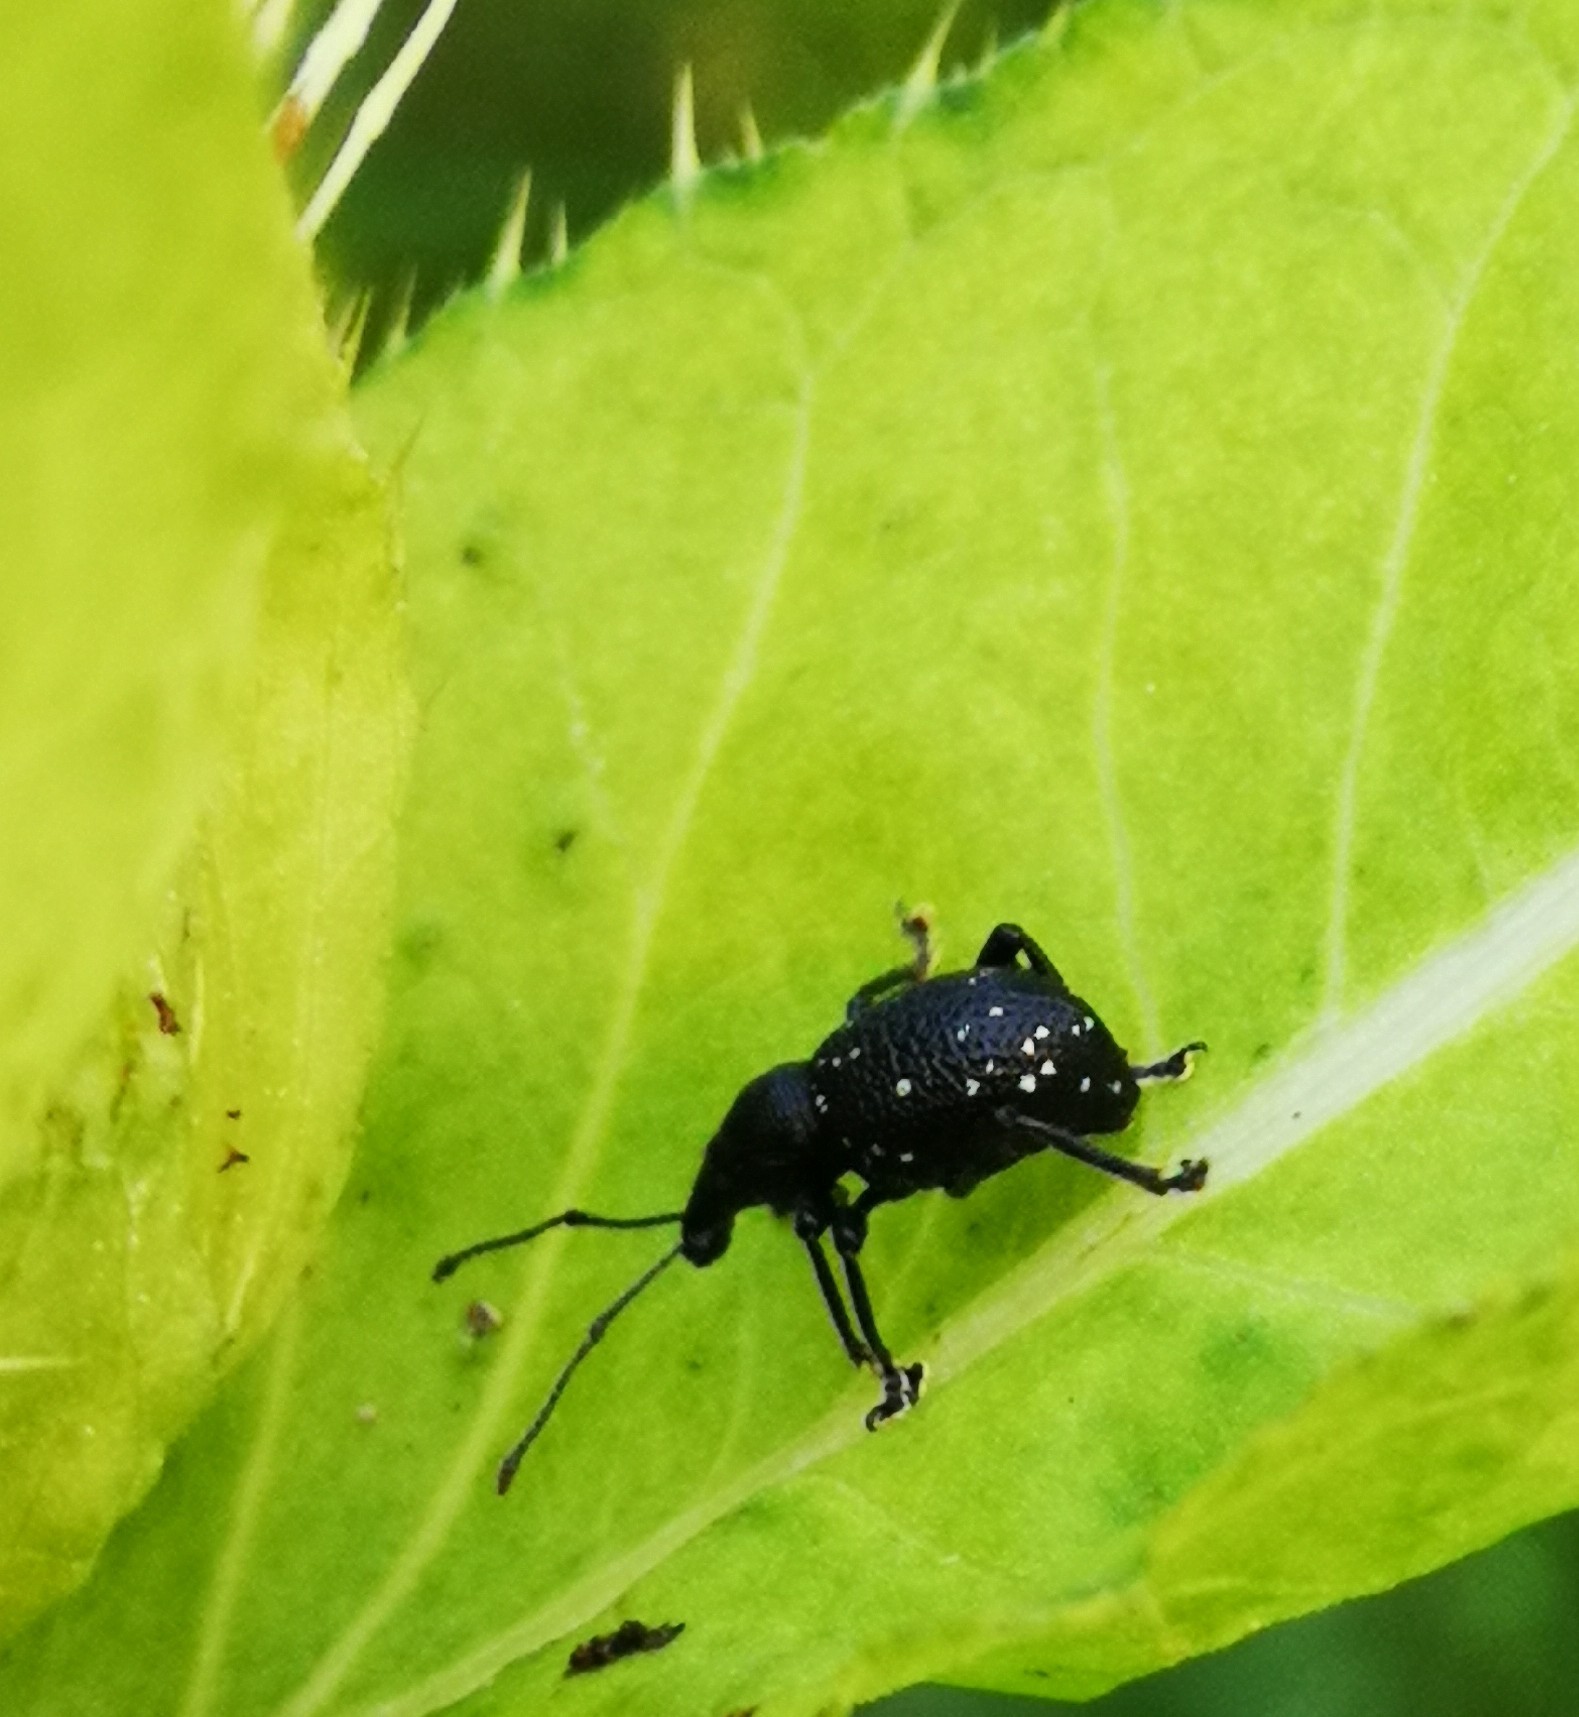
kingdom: Animalia
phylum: Arthropoda
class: Insecta
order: Coleoptera
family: Curculionidae
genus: Otiorhynchus
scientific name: Otiorhynchus gemmatus
